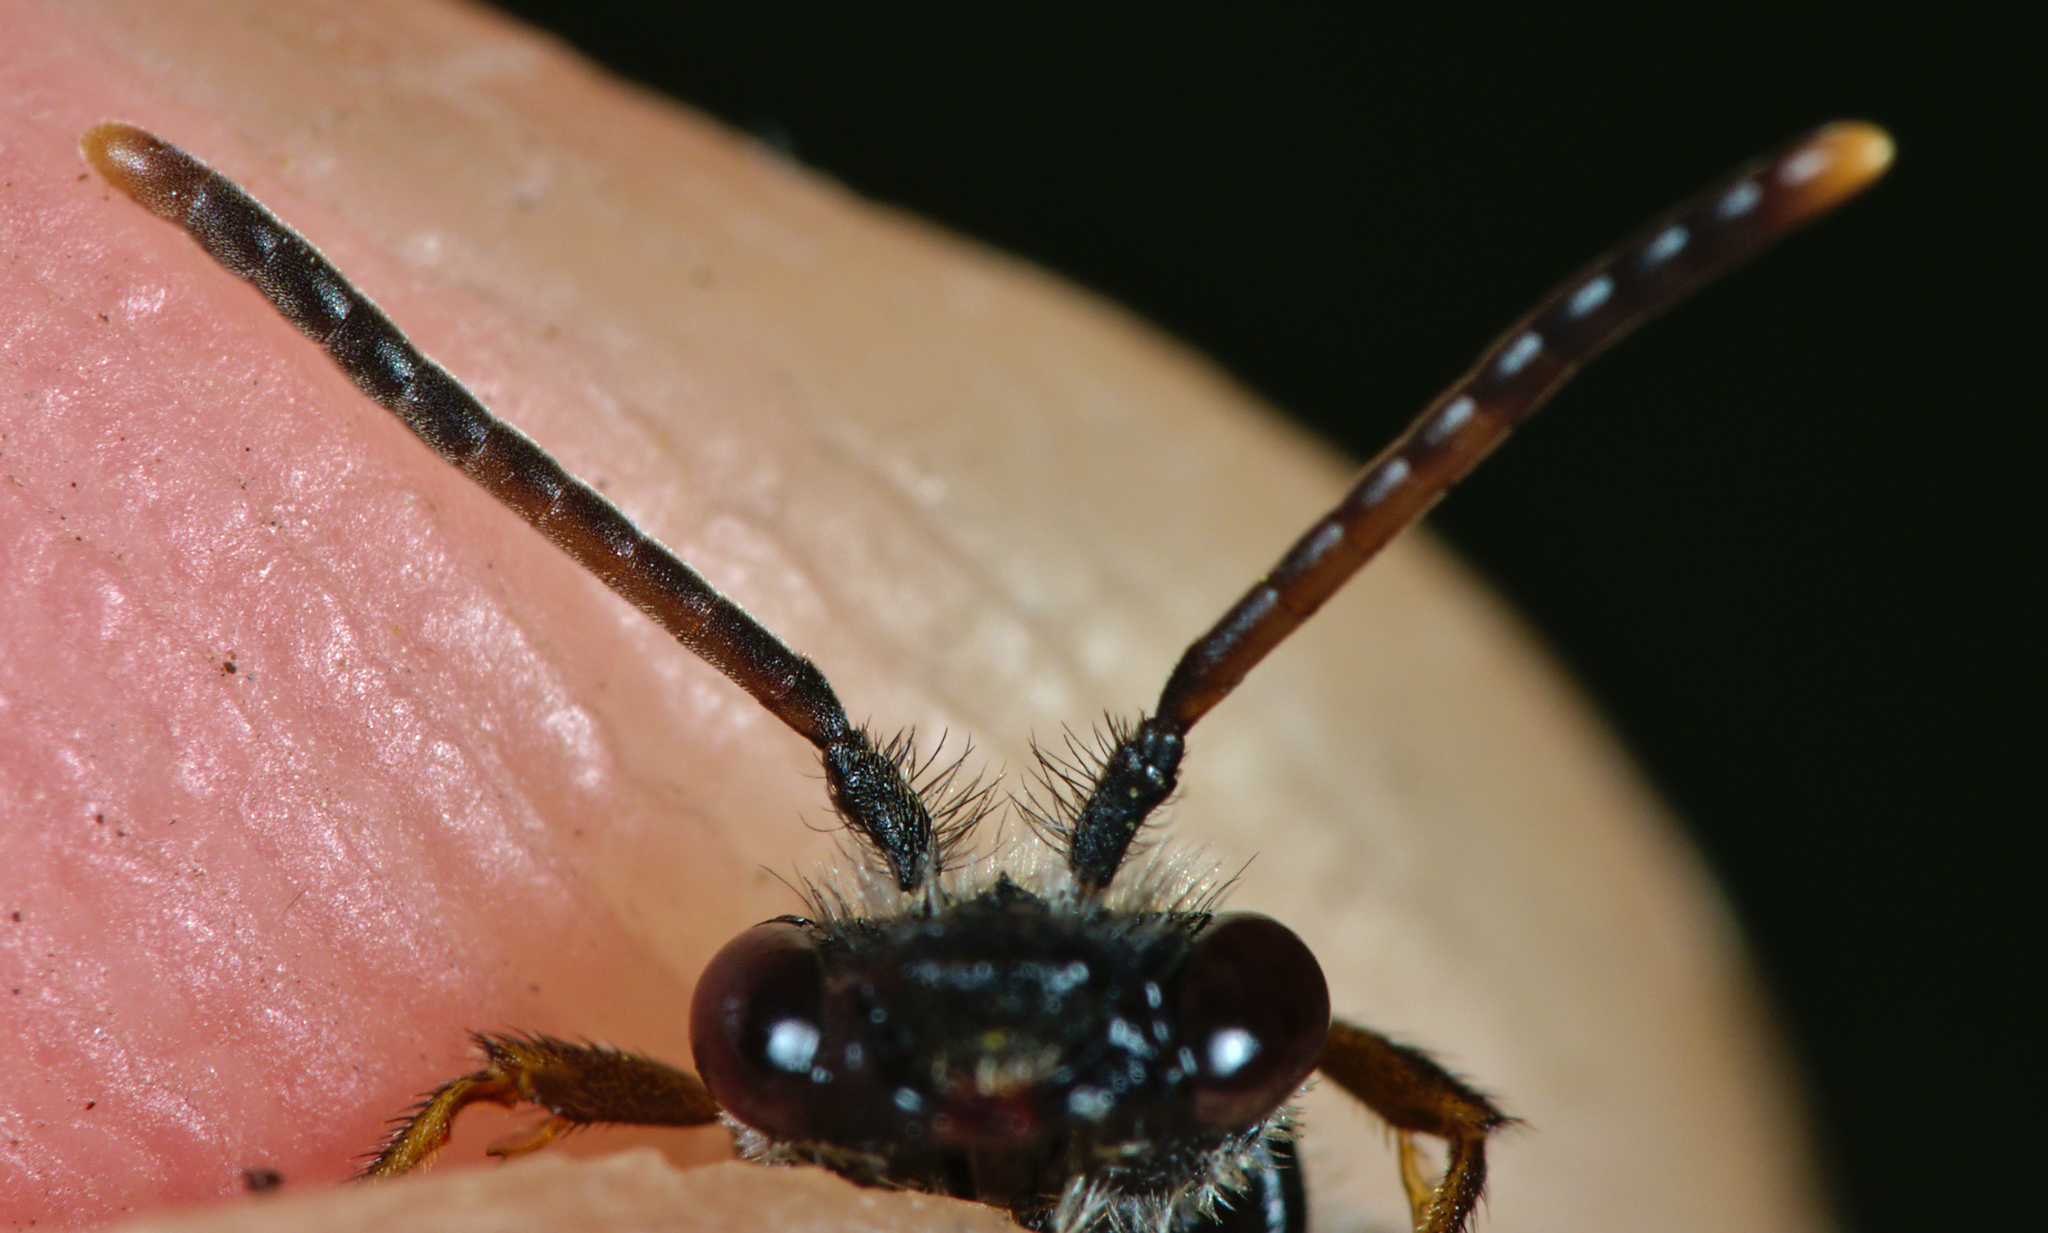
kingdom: Animalia
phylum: Arthropoda
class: Insecta
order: Hymenoptera
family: Apidae
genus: Nomada
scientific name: Nomada fabriciana
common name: Fabricius' nomad bee
